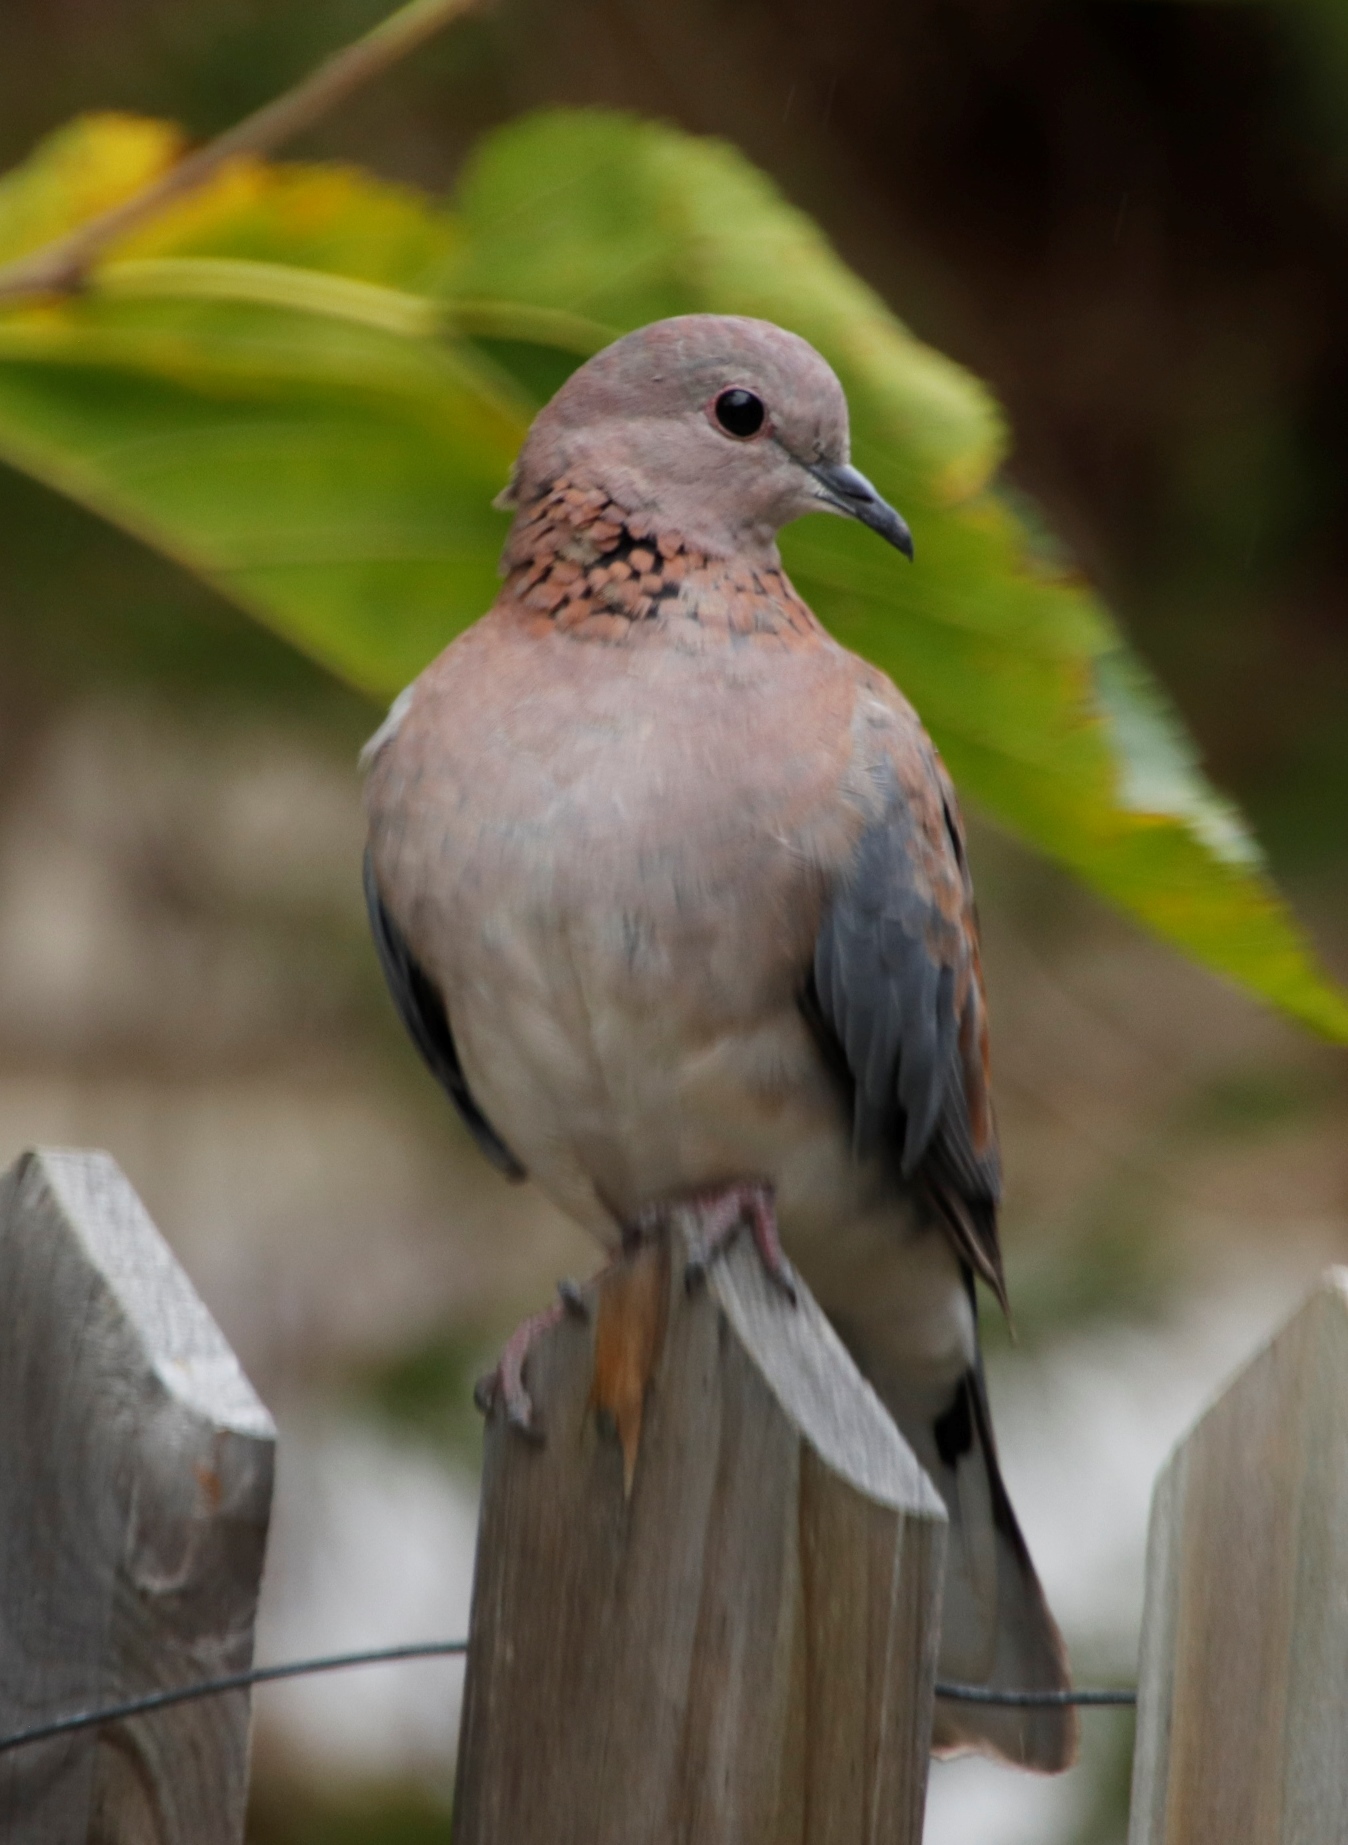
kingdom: Animalia
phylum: Chordata
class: Aves
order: Columbiformes
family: Columbidae
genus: Spilopelia
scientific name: Spilopelia senegalensis
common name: Laughing dove
